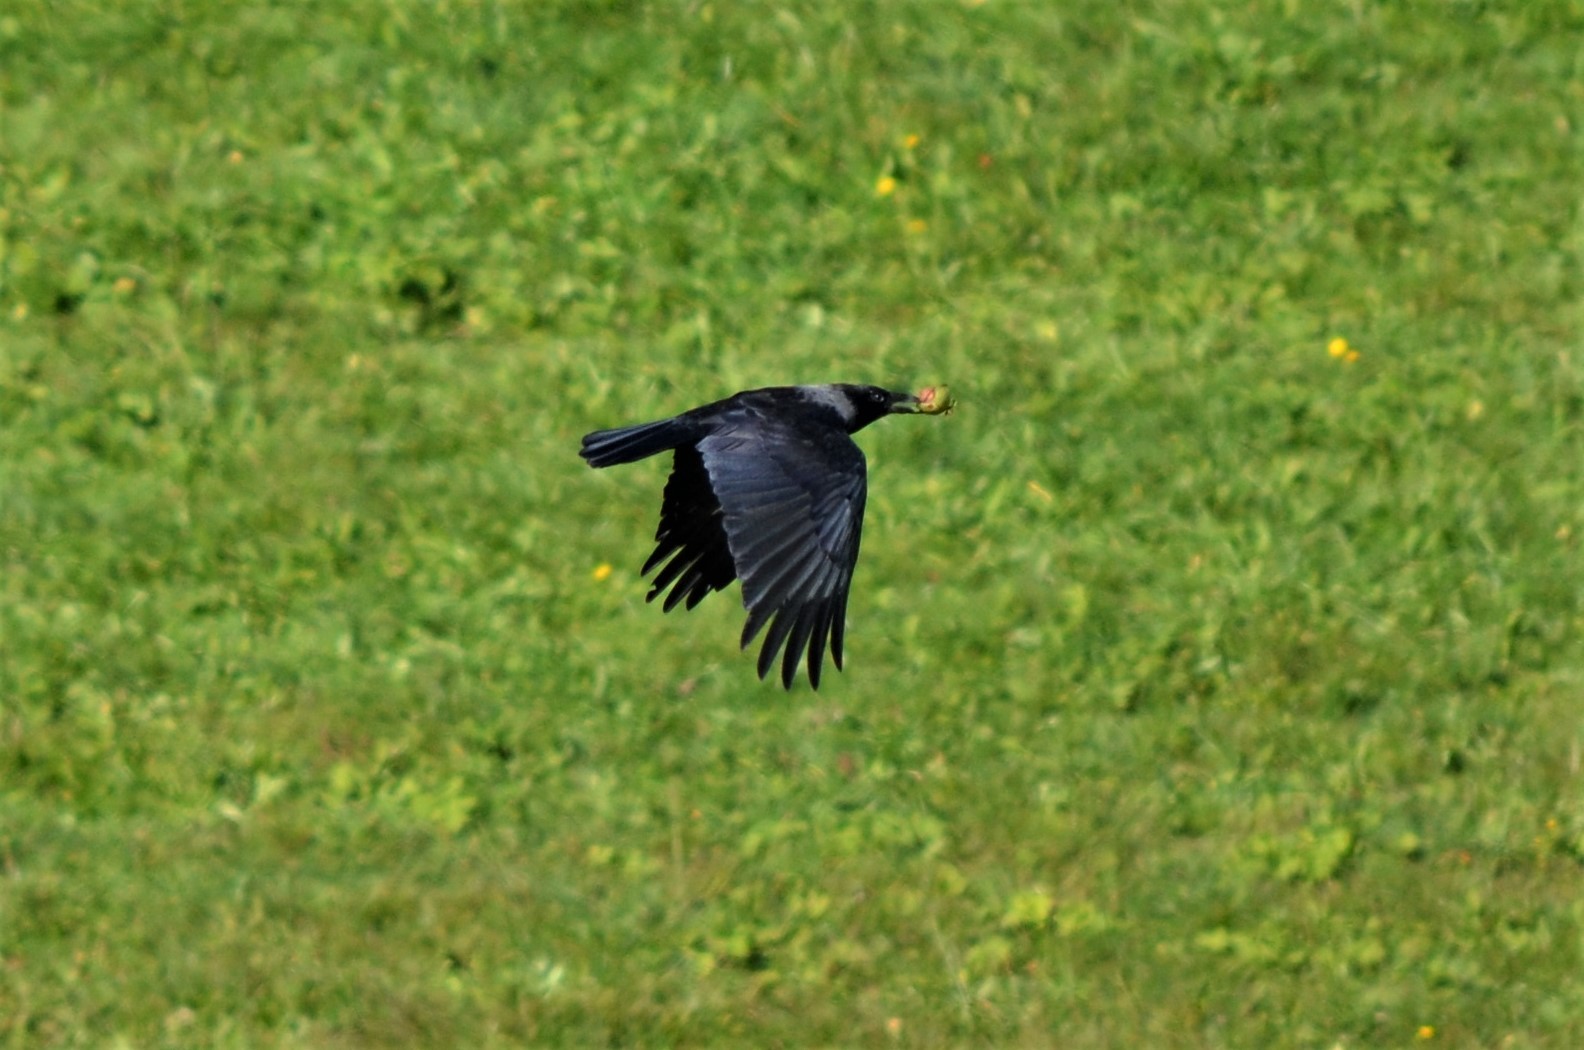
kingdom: Animalia
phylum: Chordata
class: Aves
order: Passeriformes
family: Corvidae
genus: Corvus
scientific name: Corvus
